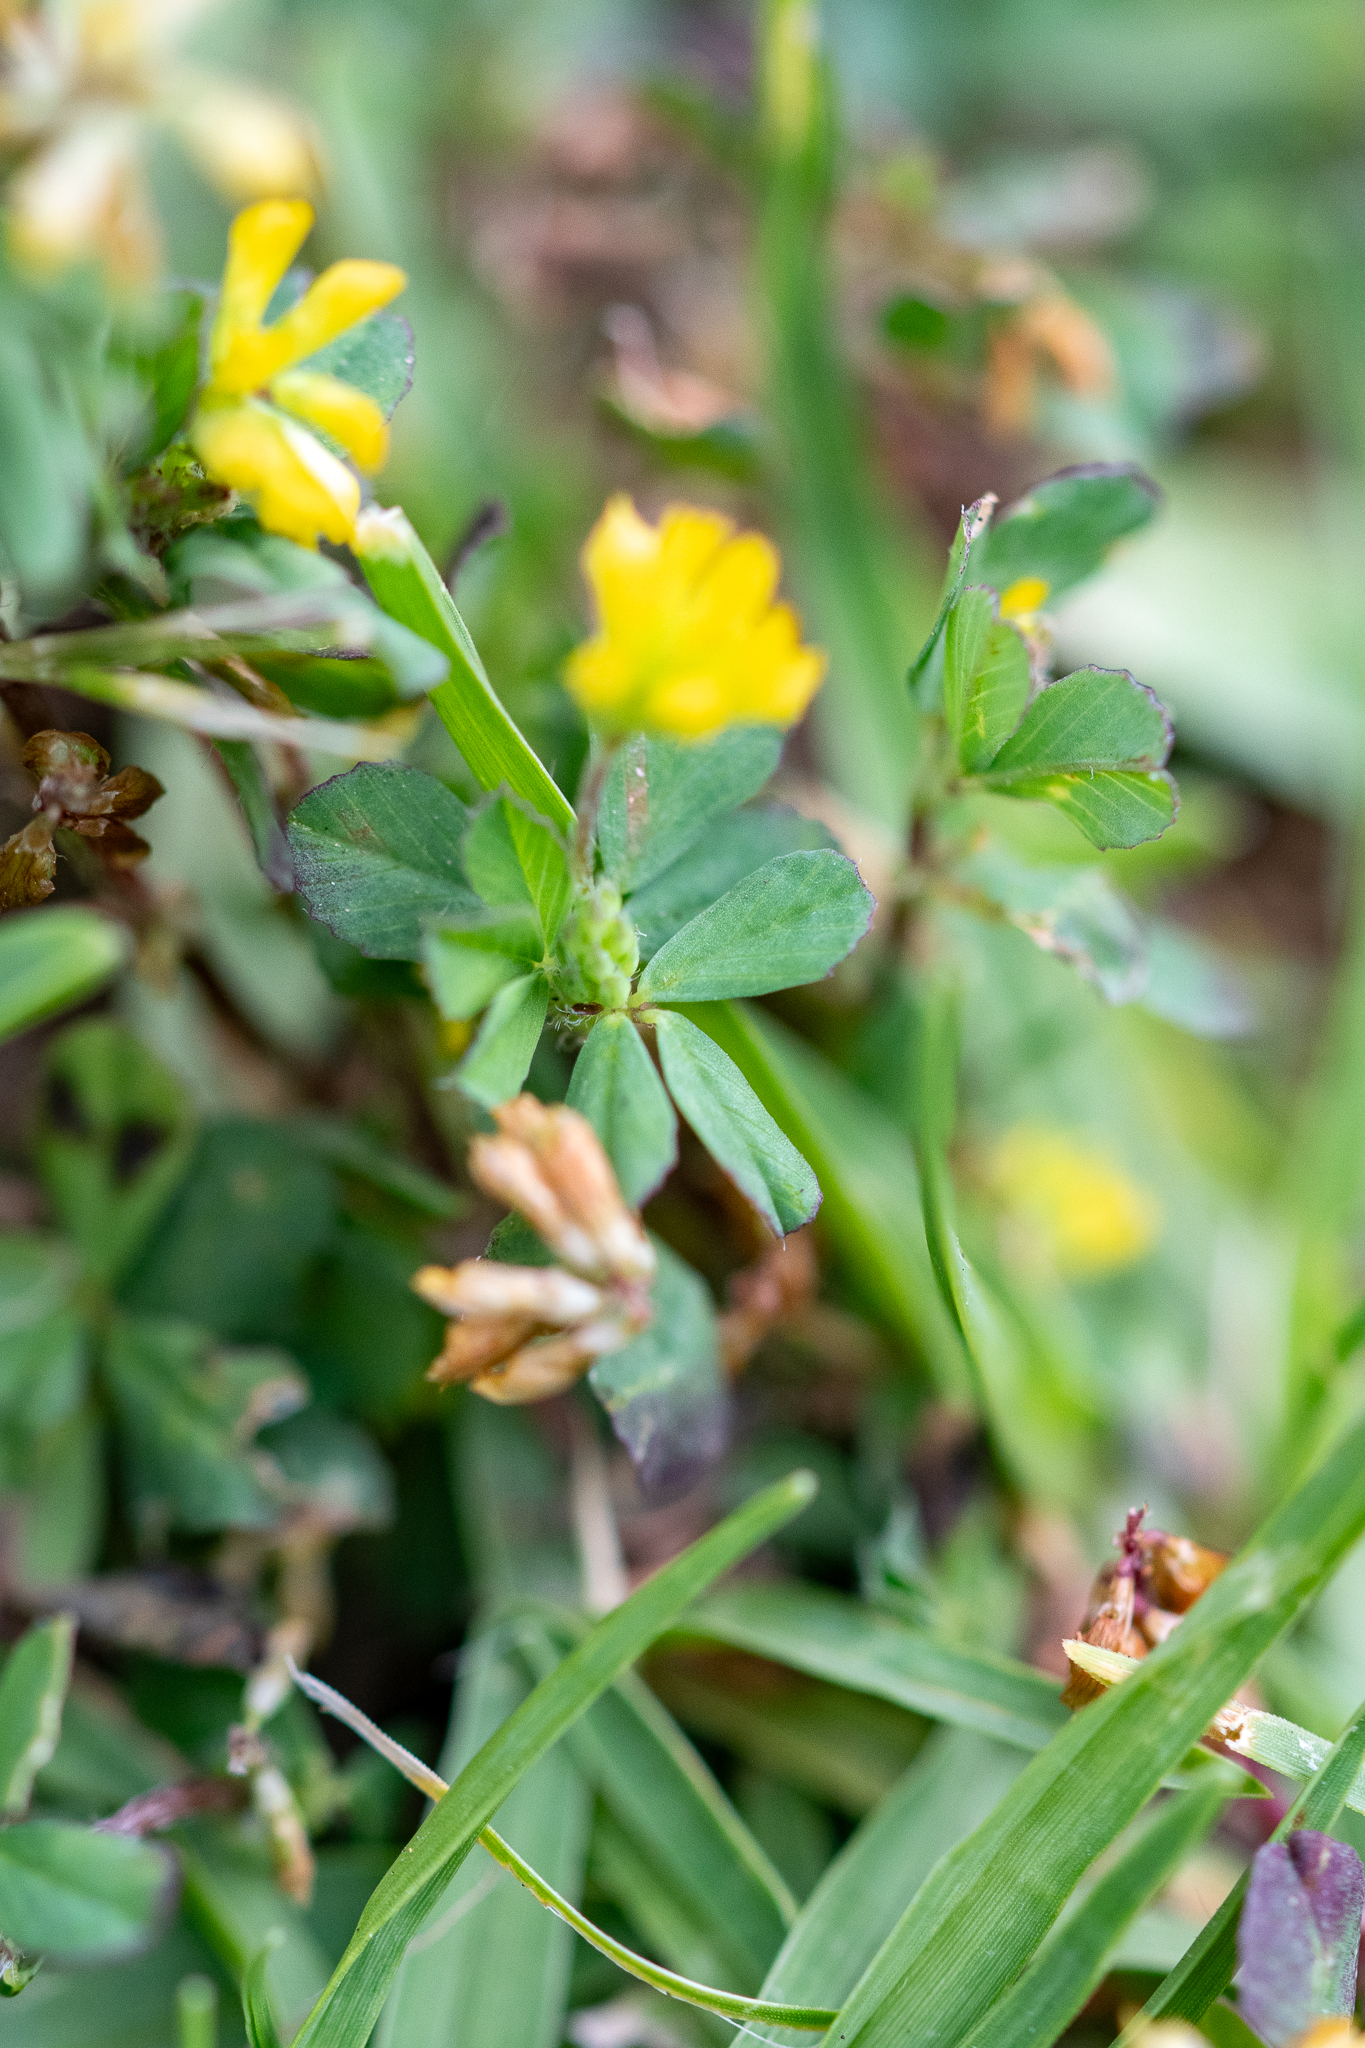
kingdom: Plantae
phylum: Tracheophyta
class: Magnoliopsida
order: Fabales
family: Fabaceae
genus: Trifolium
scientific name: Trifolium dubium
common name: Suckling clover
